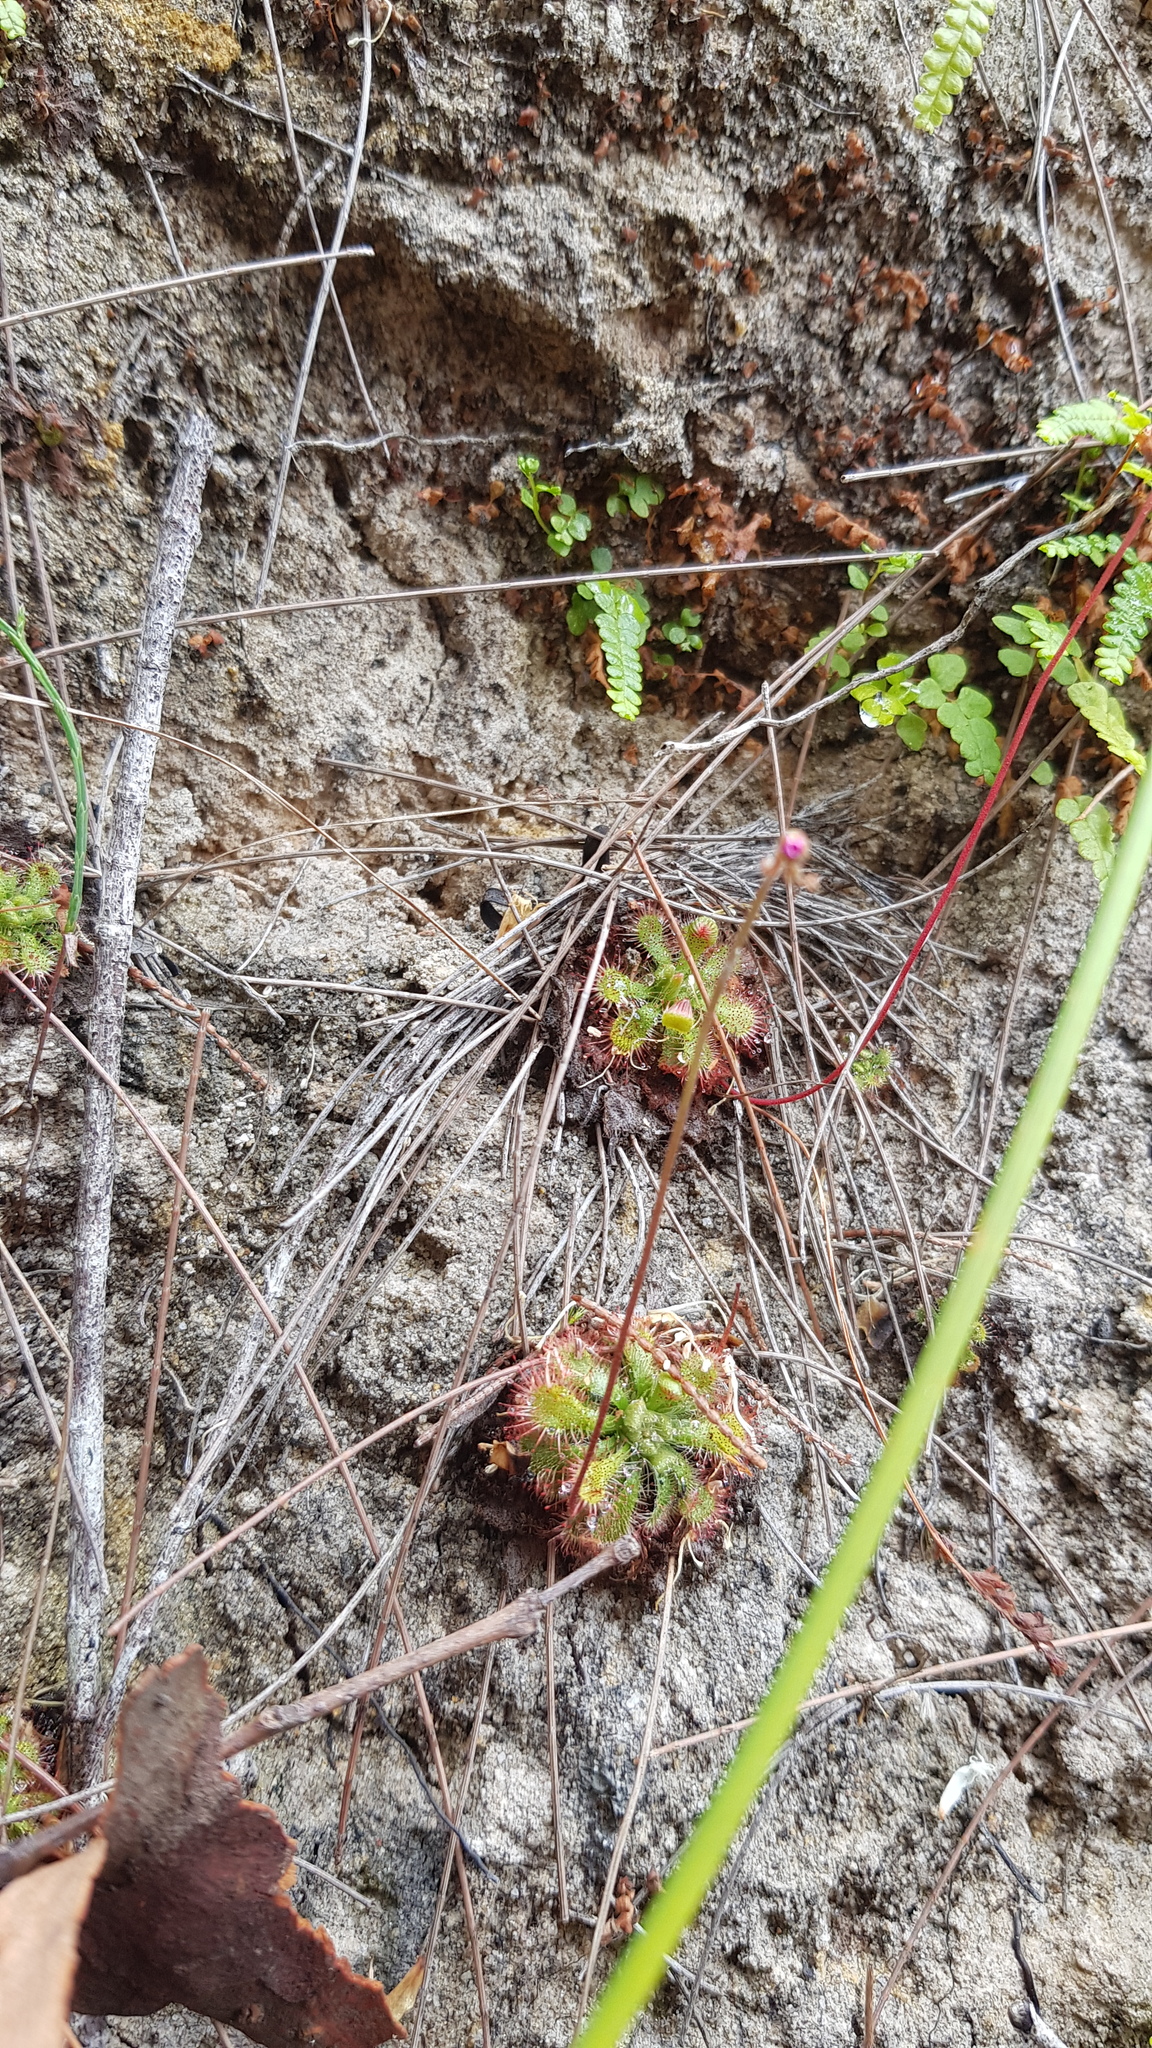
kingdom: Plantae
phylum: Tracheophyta
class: Magnoliopsida
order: Caryophyllales
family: Droseraceae
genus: Drosera
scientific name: Drosera spatulata
